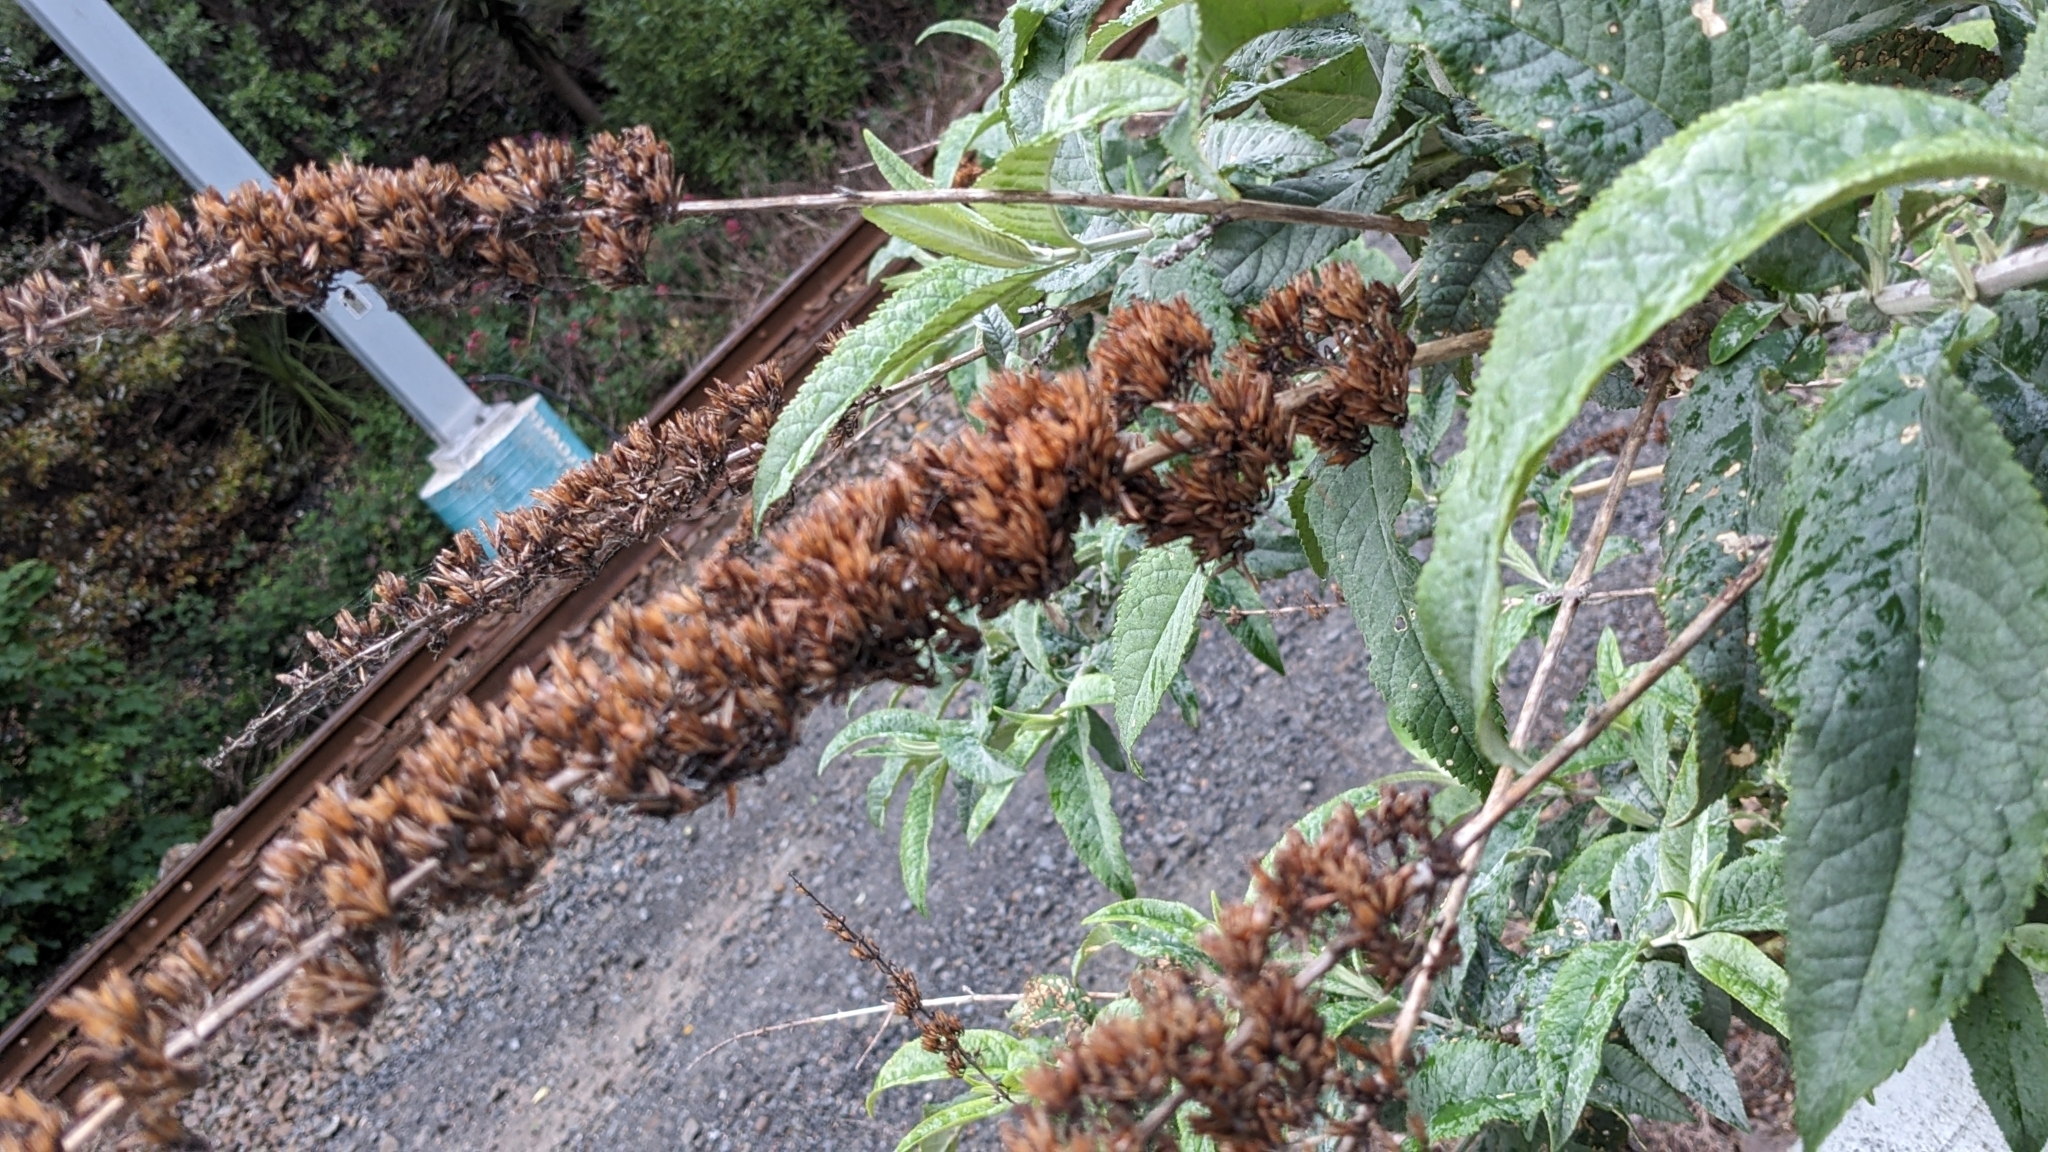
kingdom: Plantae
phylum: Tracheophyta
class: Magnoliopsida
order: Lamiales
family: Scrophulariaceae
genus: Buddleja
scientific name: Buddleja davidii
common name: Butterfly-bush
